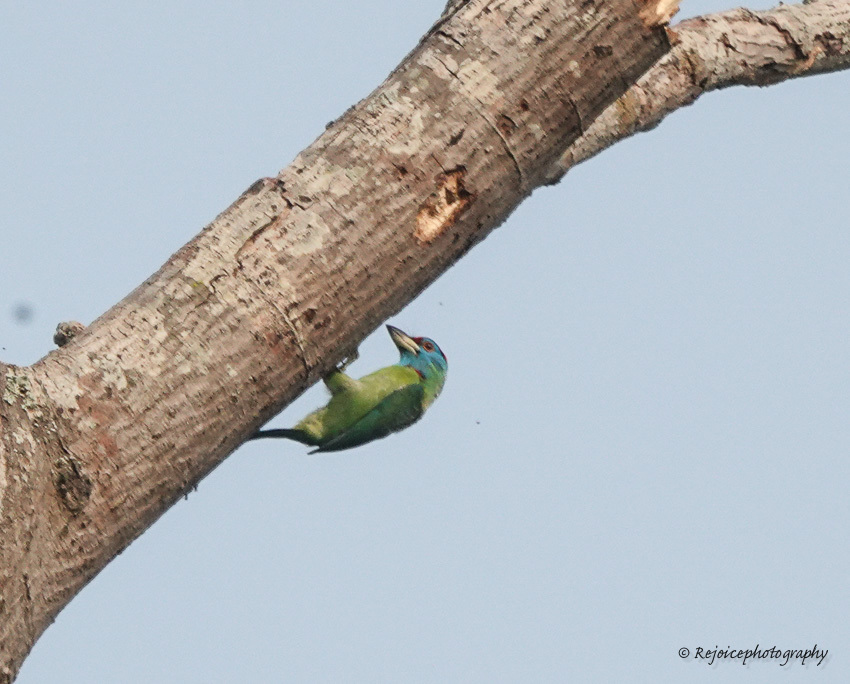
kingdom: Animalia
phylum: Chordata
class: Aves
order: Piciformes
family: Megalaimidae
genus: Psilopogon
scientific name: Psilopogon asiaticus
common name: Blue-throated barbet
